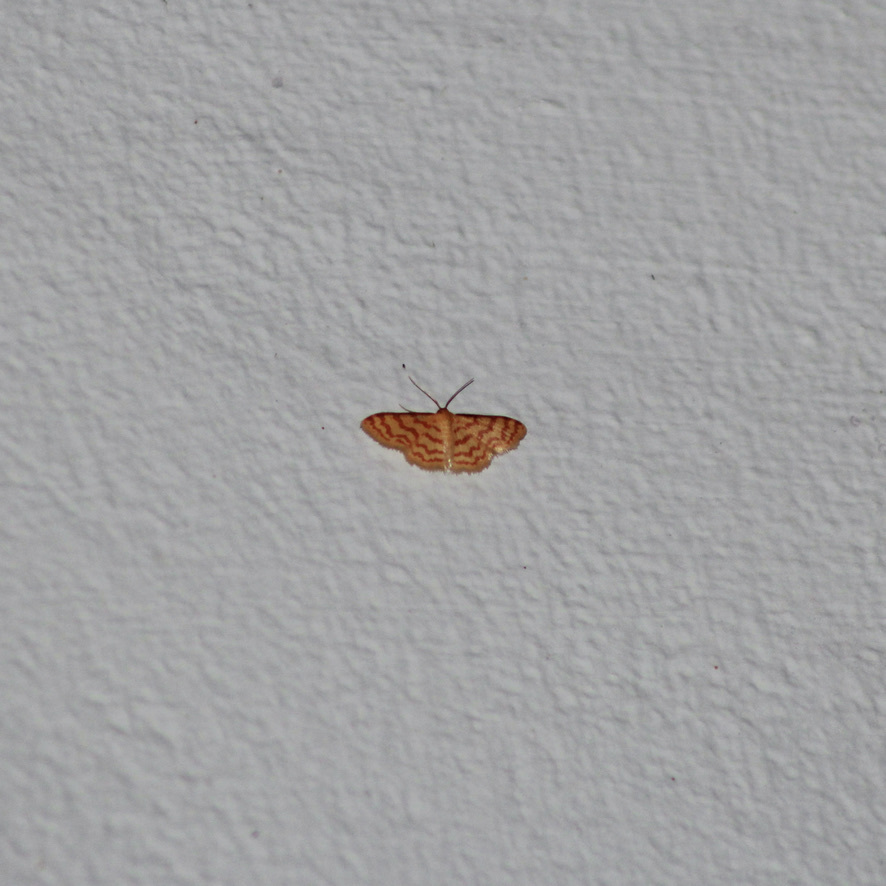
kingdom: Animalia
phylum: Arthropoda
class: Insecta
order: Lepidoptera
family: Geometridae
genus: Tricentrogyna
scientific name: Tricentrogyna deportata
